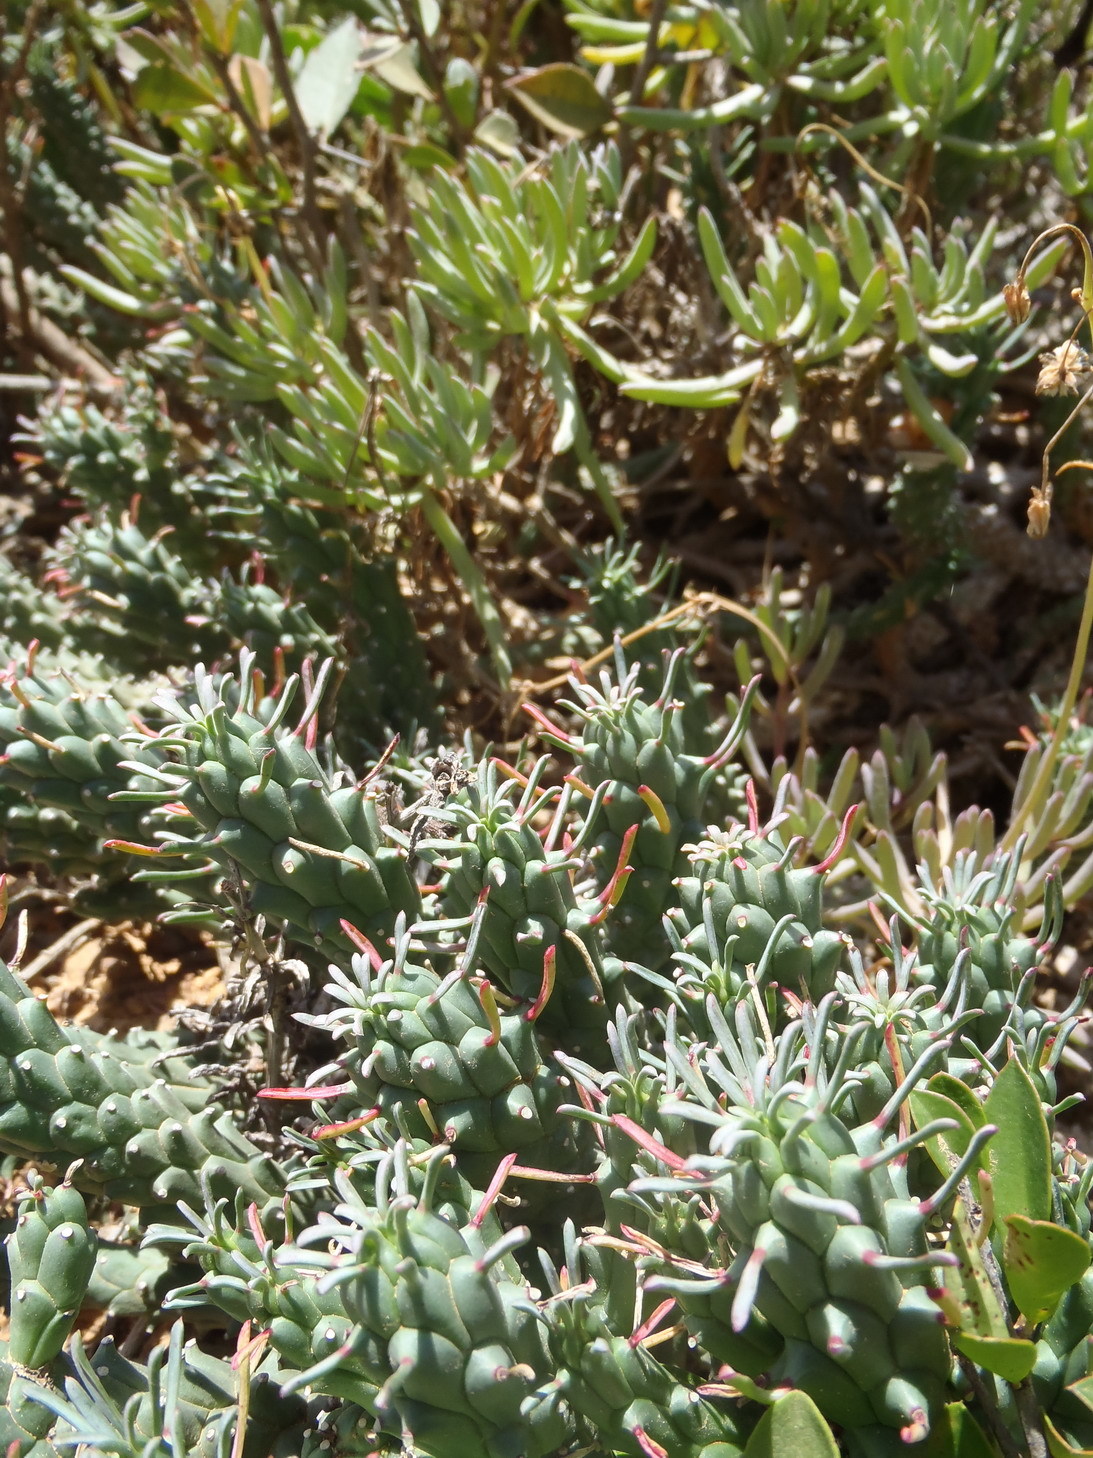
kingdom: Plantae
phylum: Tracheophyta
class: Magnoliopsida
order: Malpighiales
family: Euphorbiaceae
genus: Euphorbia
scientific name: Euphorbia caput-medusae
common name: Medusa's-head
